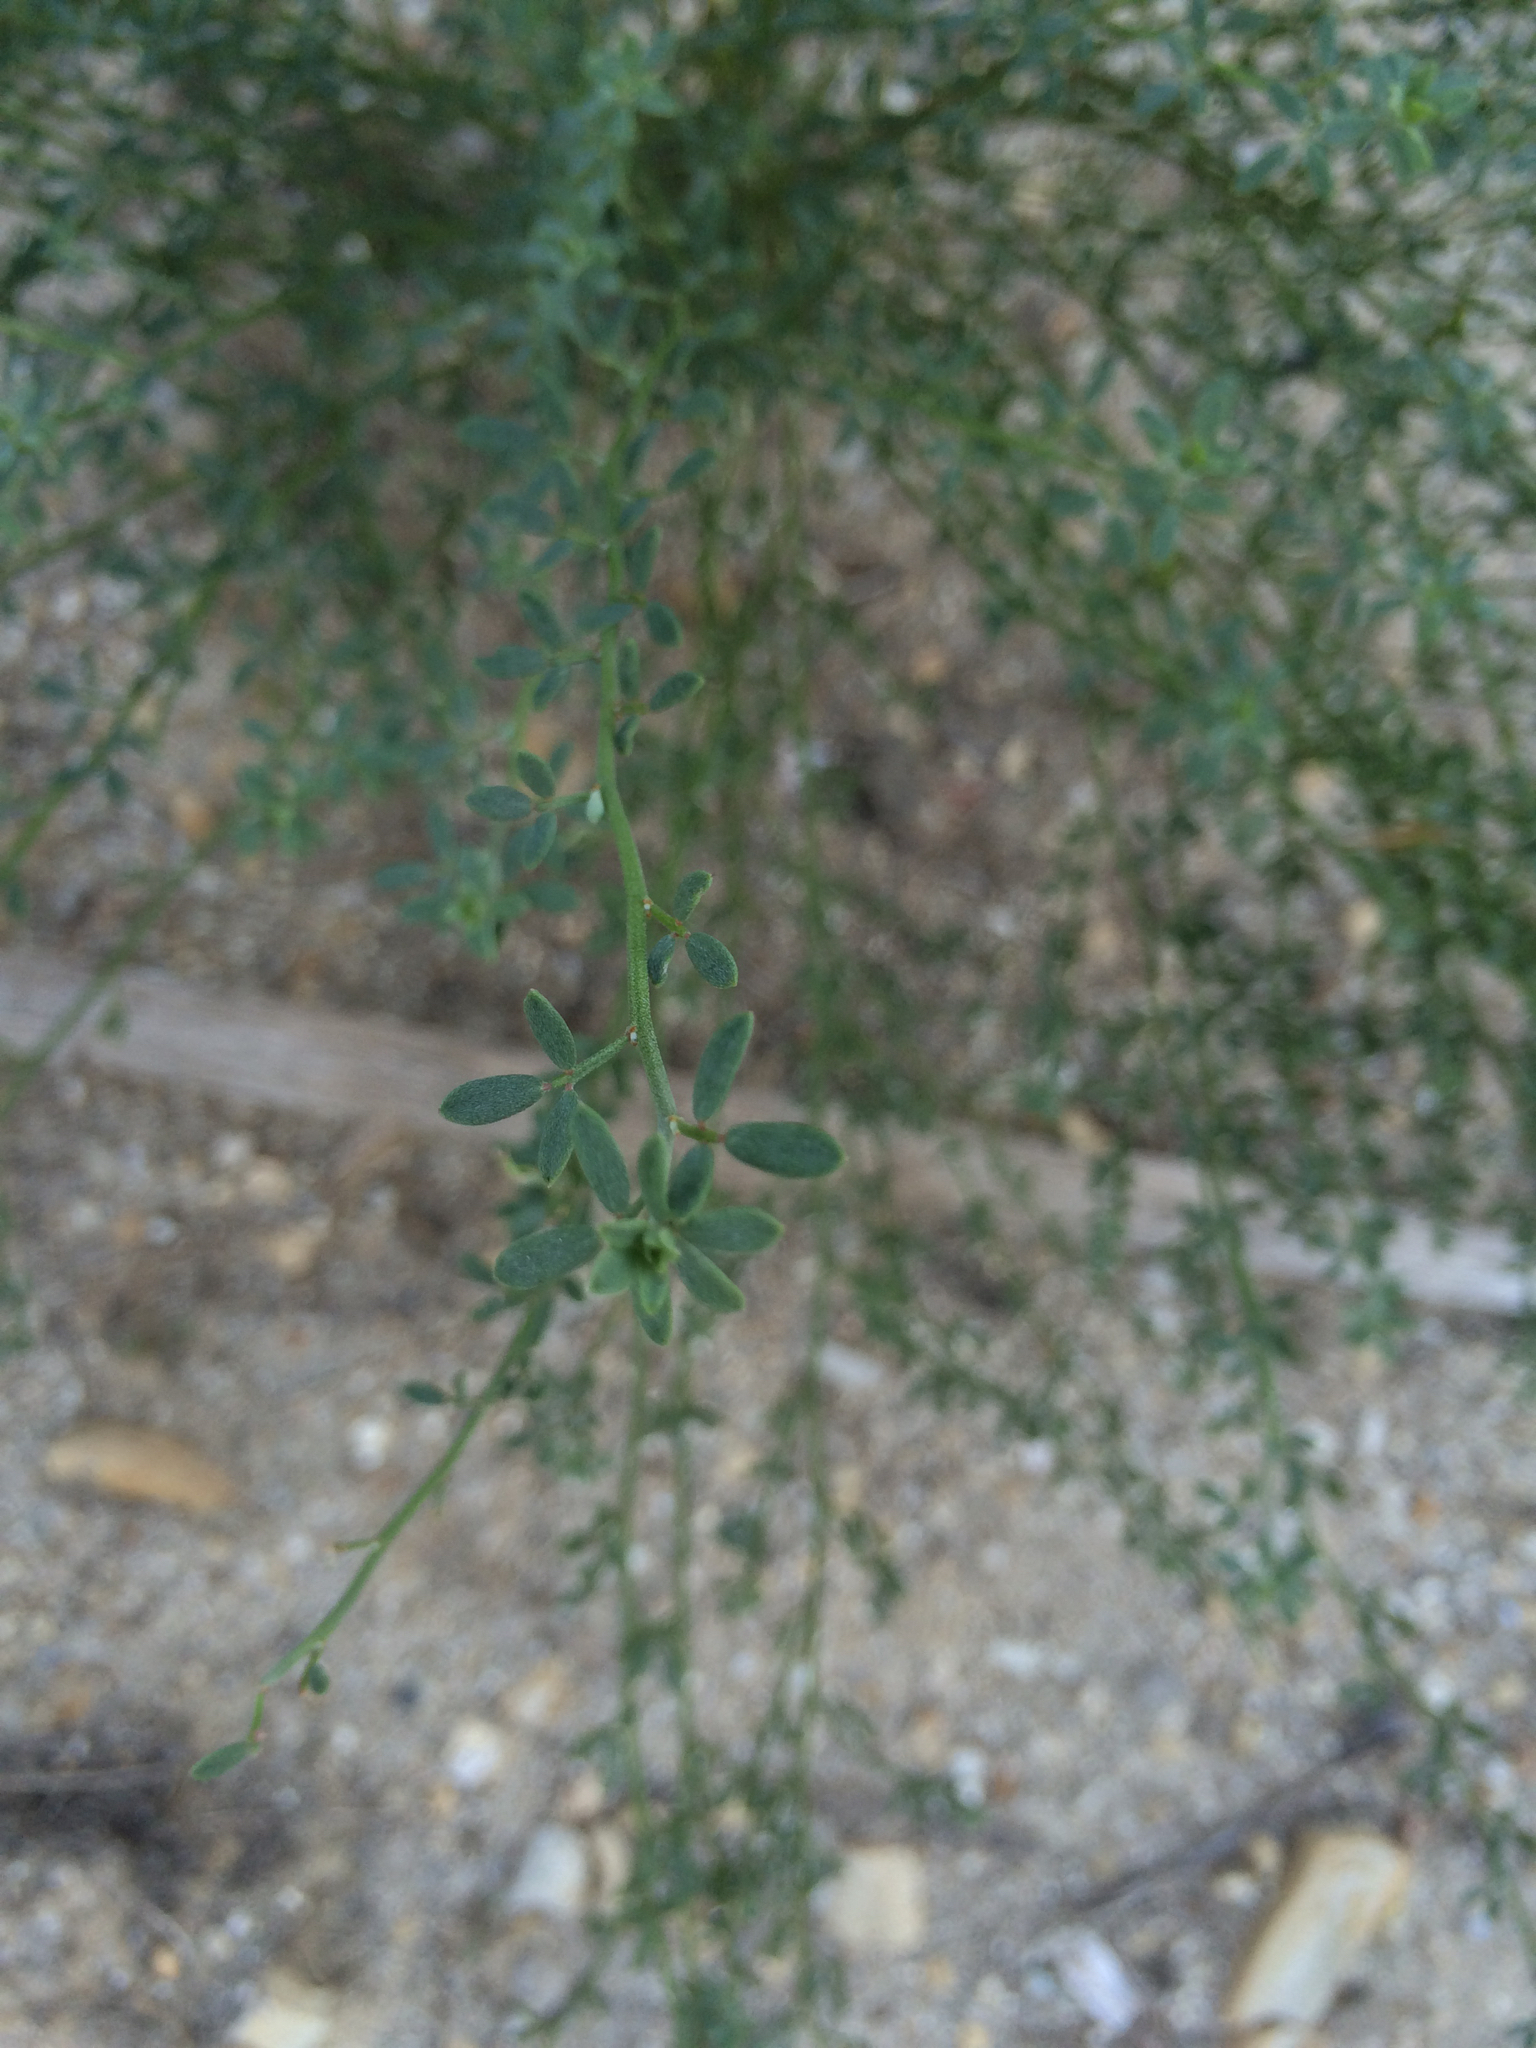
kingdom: Plantae
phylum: Tracheophyta
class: Magnoliopsida
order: Fabales
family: Fabaceae
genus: Acmispon
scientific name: Acmispon glaber
